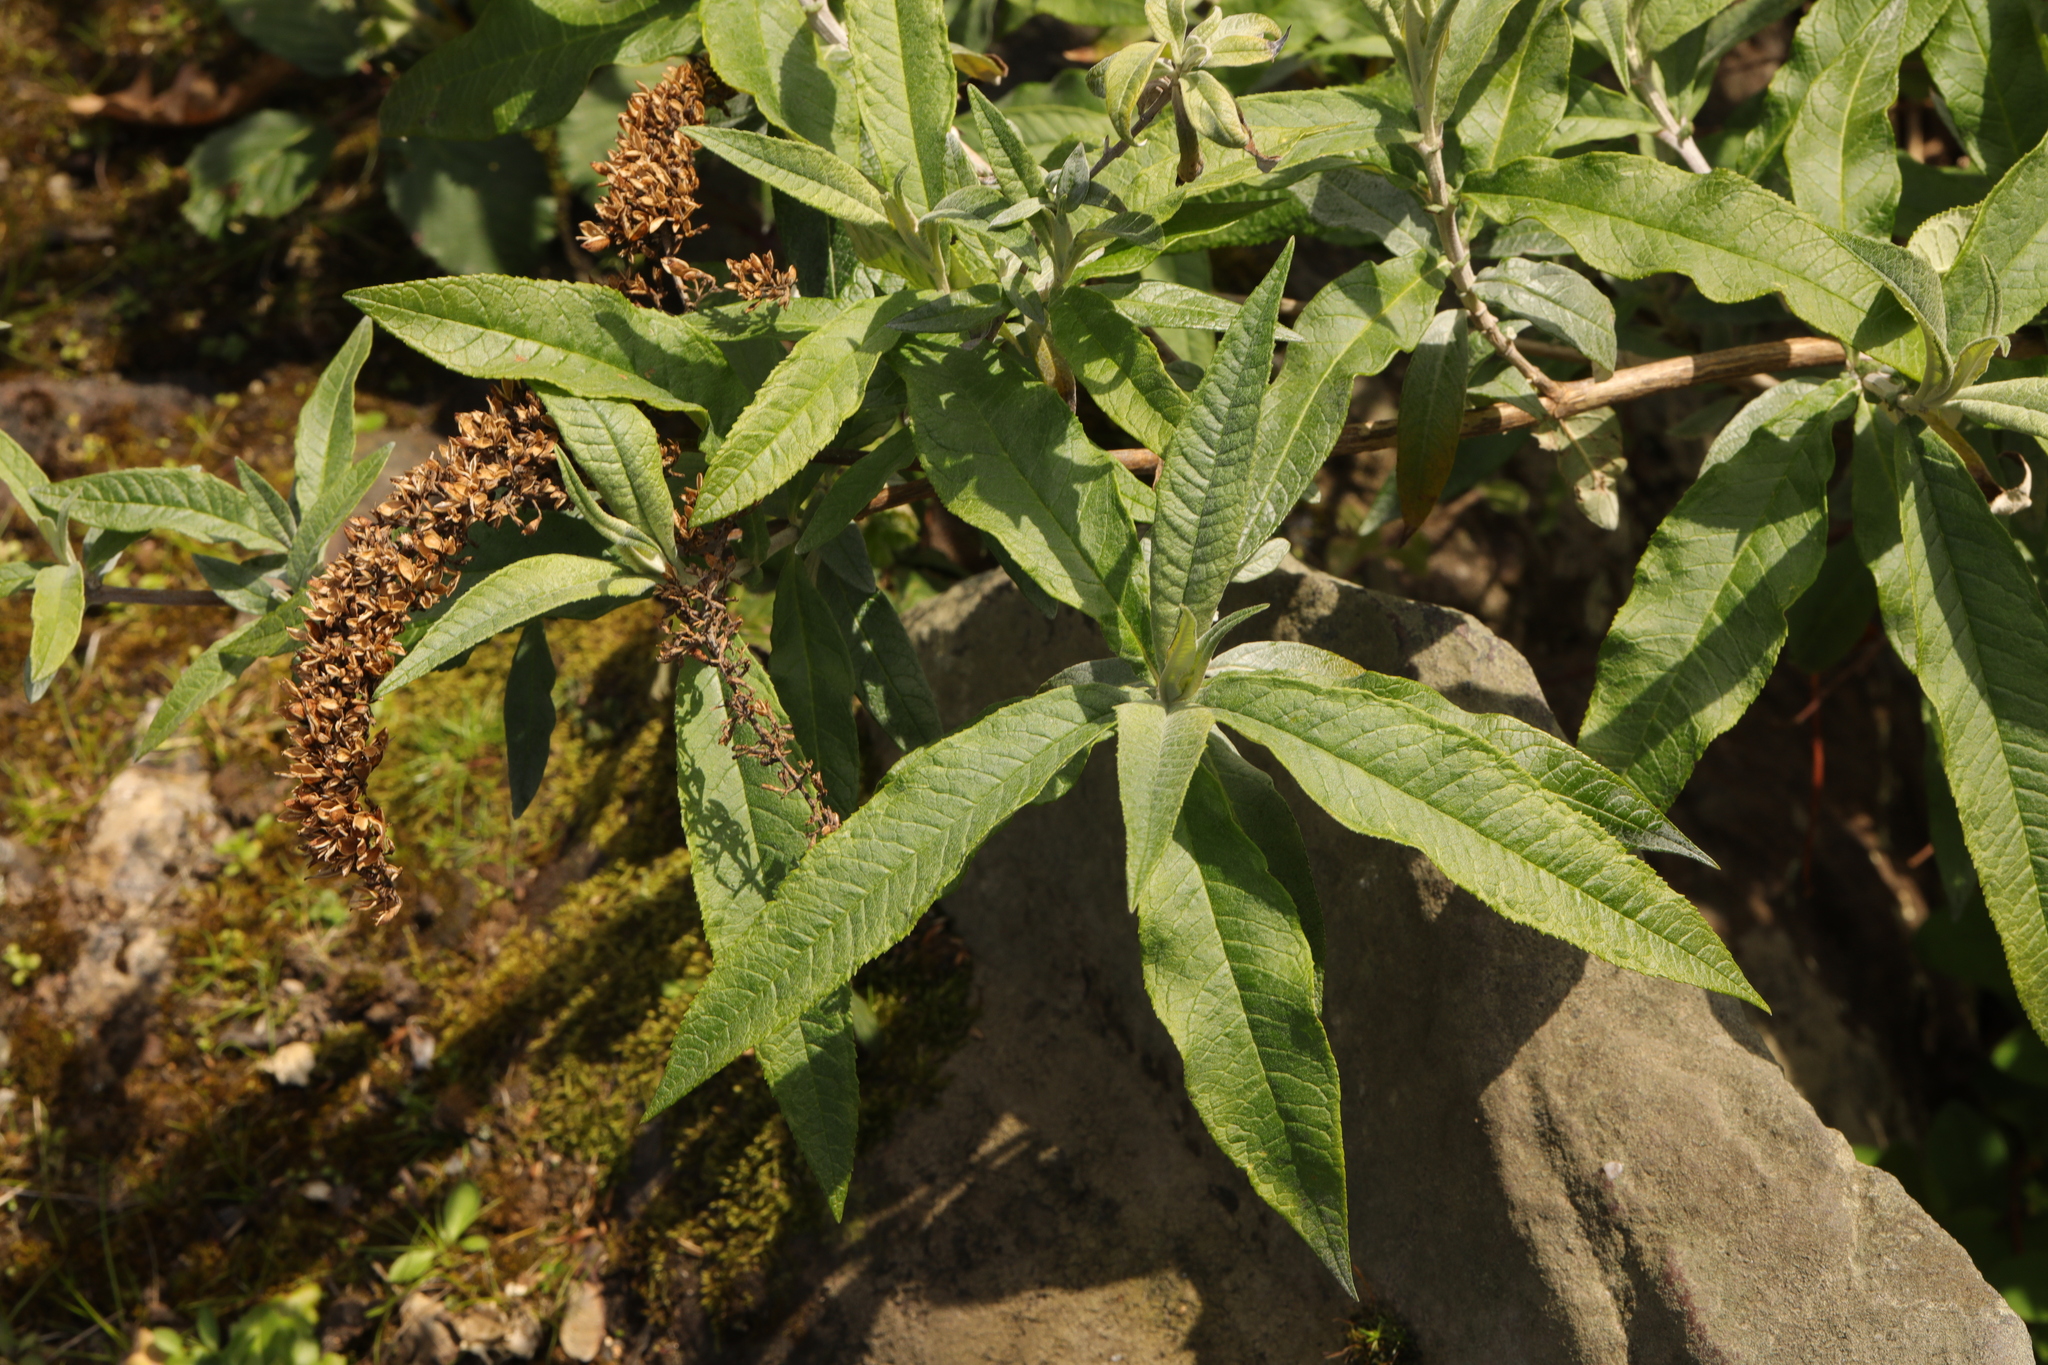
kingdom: Plantae
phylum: Tracheophyta
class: Magnoliopsida
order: Lamiales
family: Scrophulariaceae
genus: Buddleja
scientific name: Buddleja davidii
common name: Butterfly-bush
